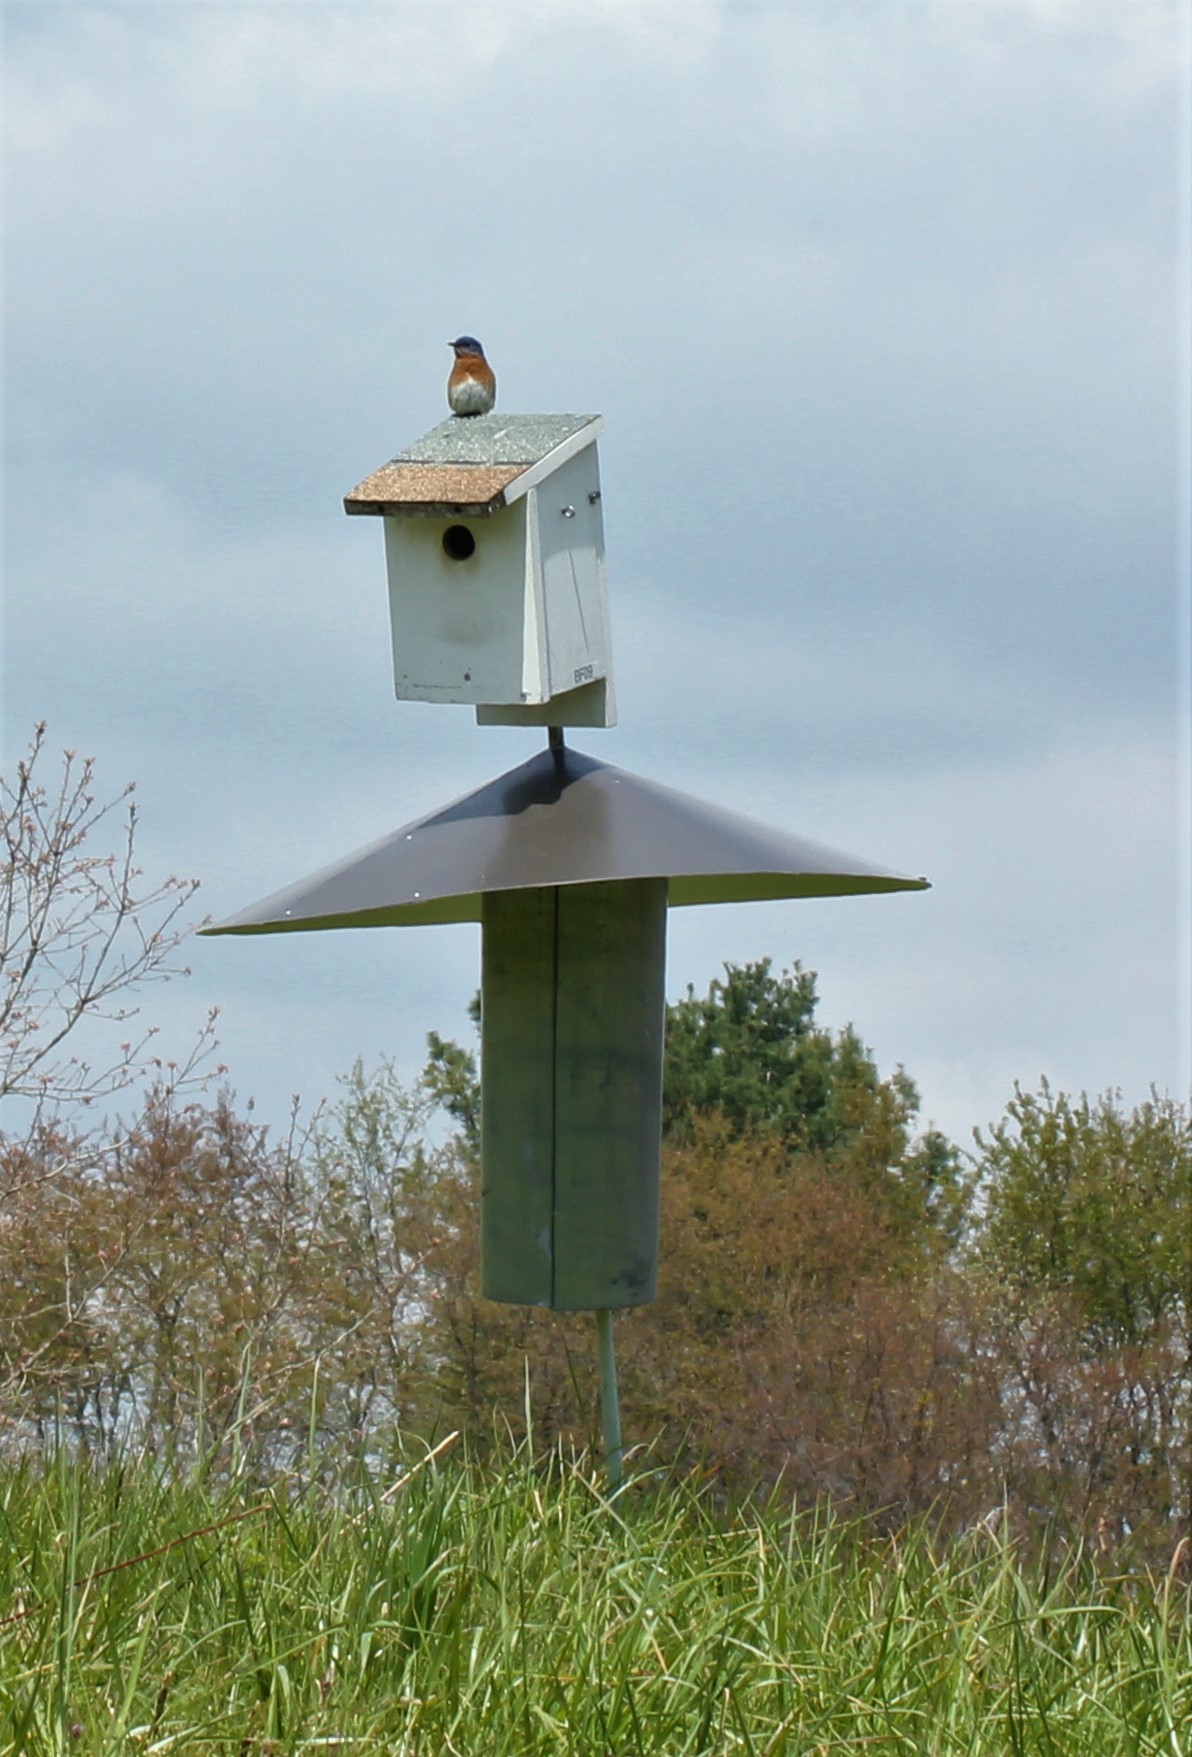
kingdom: Animalia
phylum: Chordata
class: Aves
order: Passeriformes
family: Turdidae
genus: Sialia
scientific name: Sialia sialis
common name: Eastern bluebird
